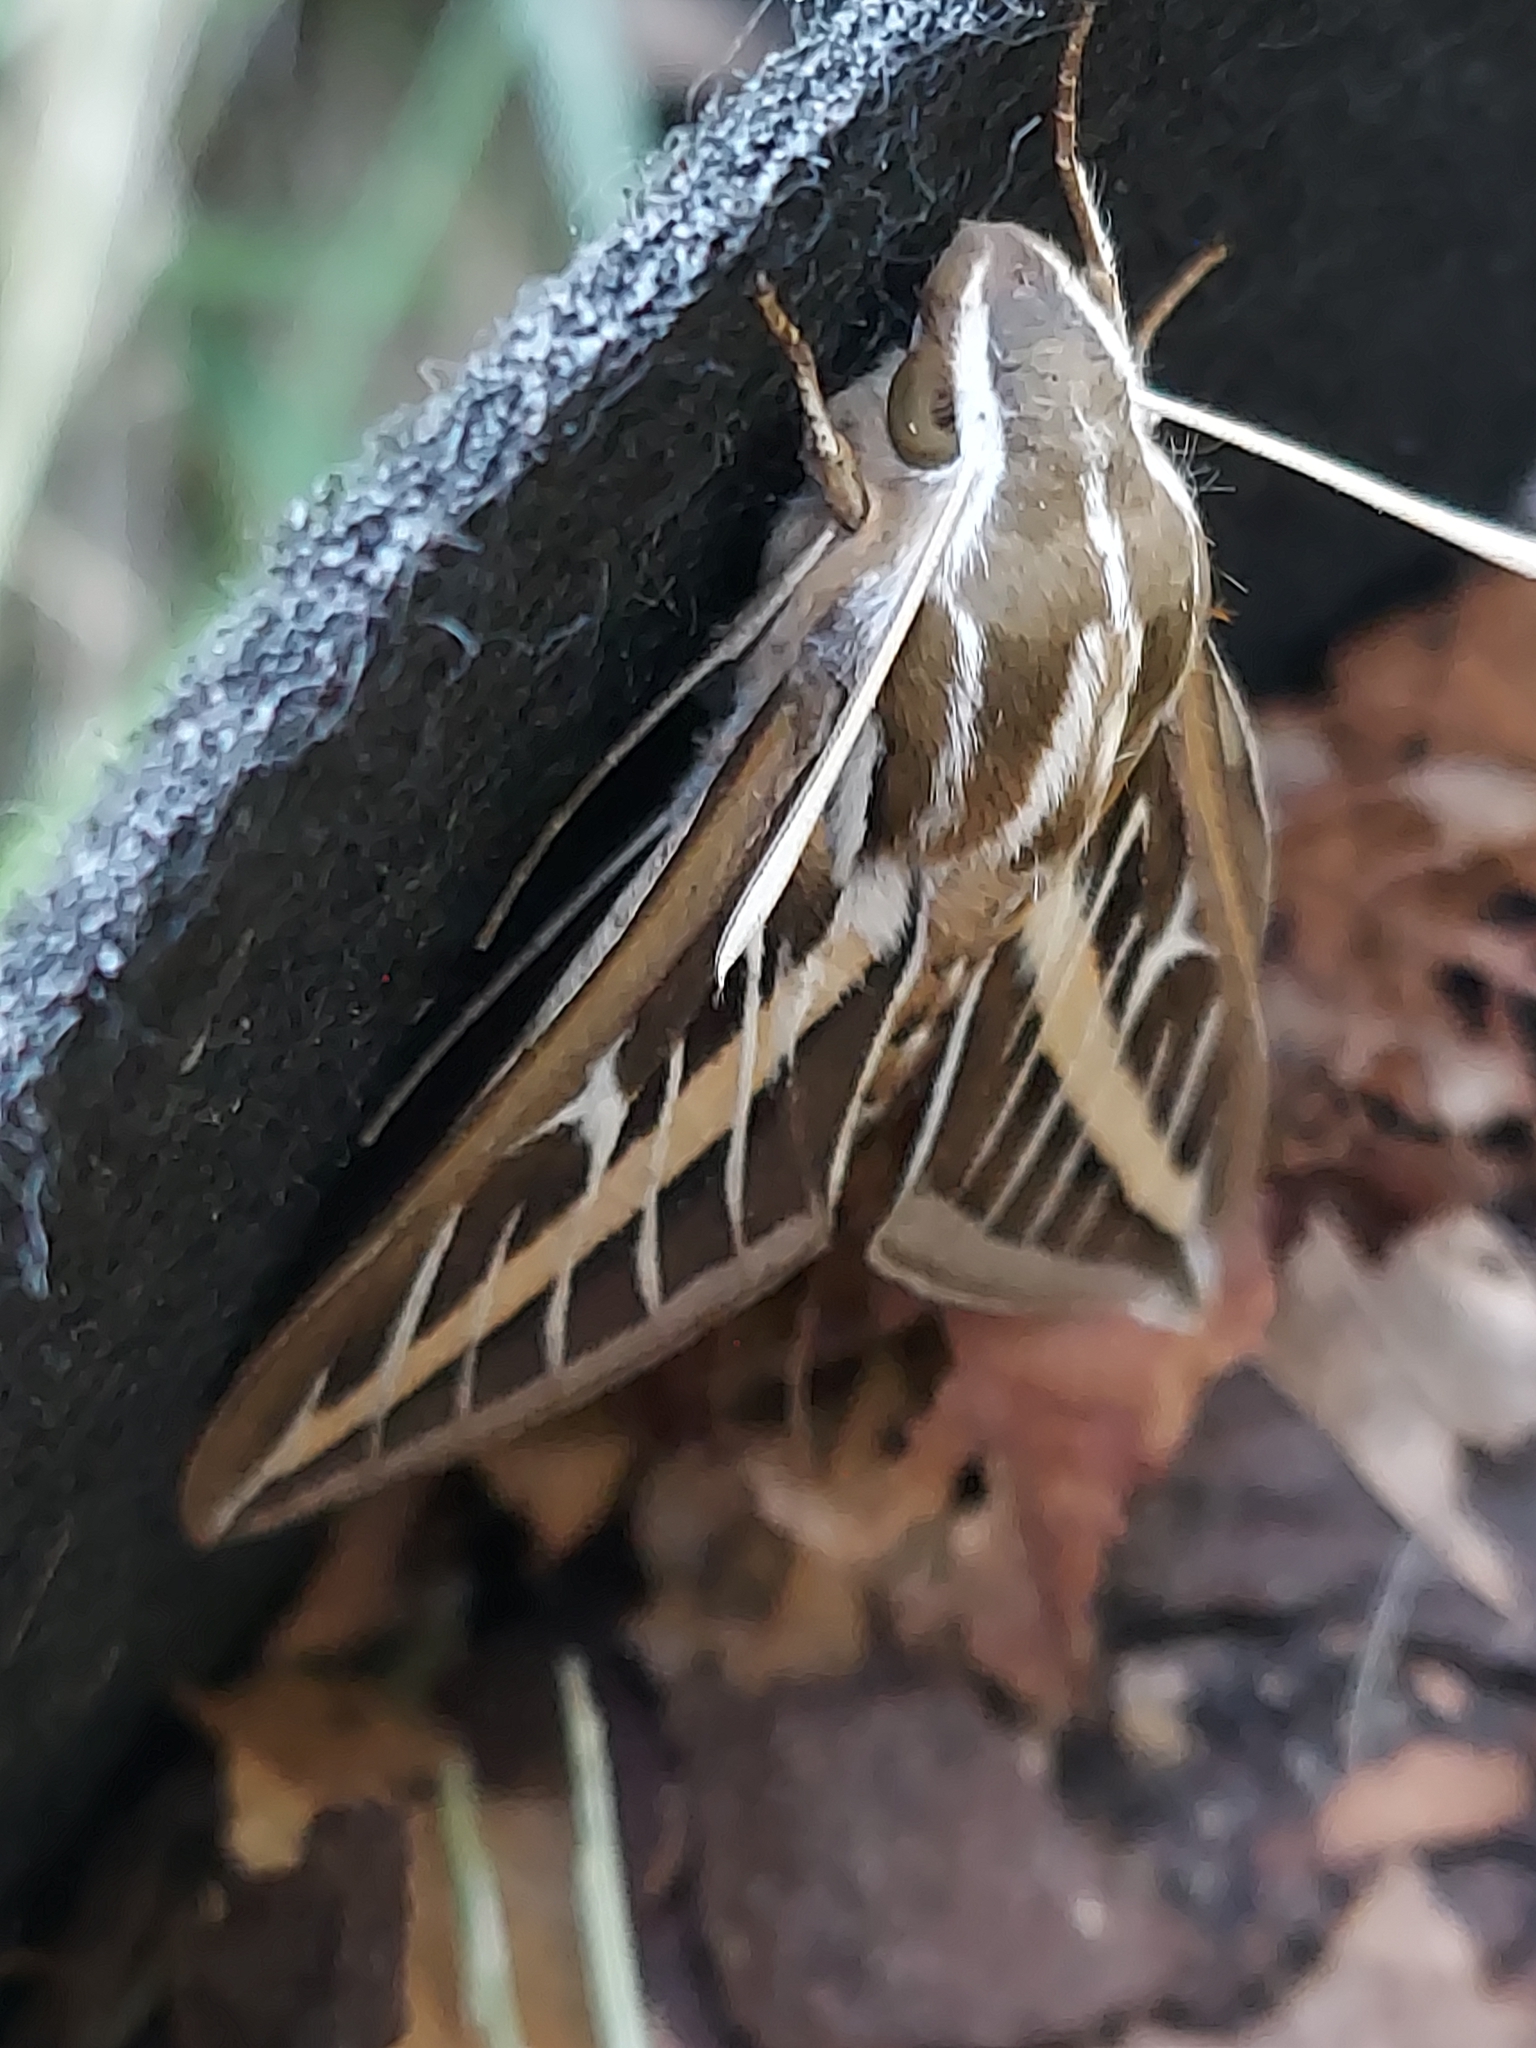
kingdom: Animalia
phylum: Arthropoda
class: Insecta
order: Lepidoptera
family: Sphingidae
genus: Hyles
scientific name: Hyles lineata
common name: White-lined sphinx
